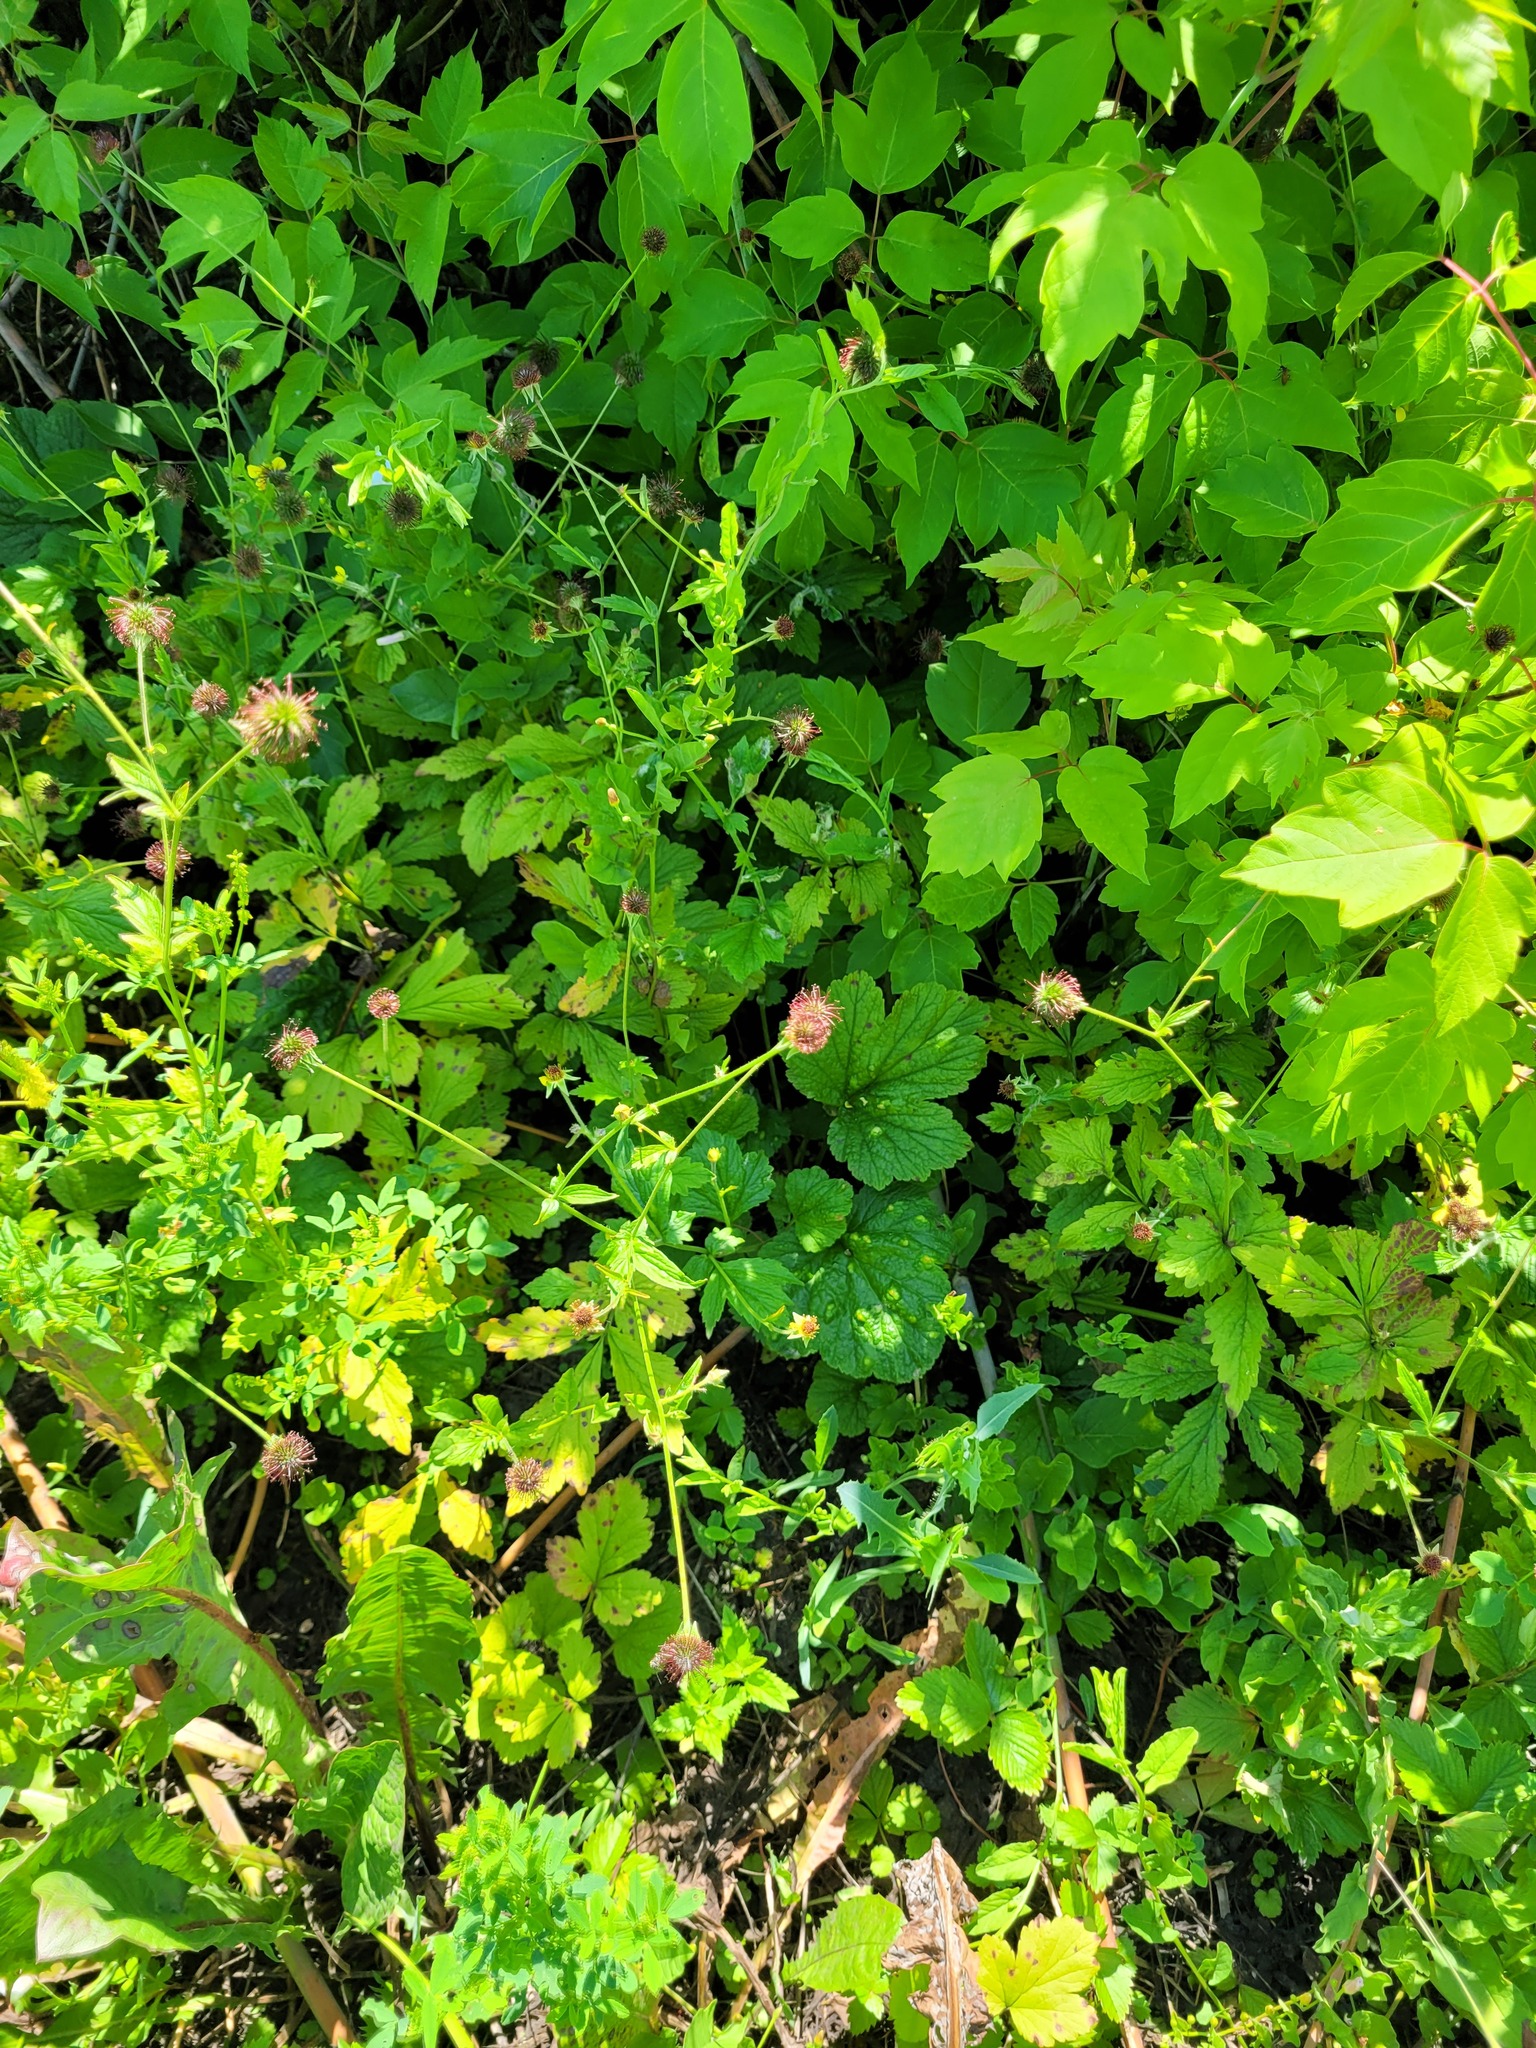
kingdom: Plantae
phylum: Tracheophyta
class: Magnoliopsida
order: Rosales
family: Rosaceae
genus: Geum
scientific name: Geum urbanum
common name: Wood avens
